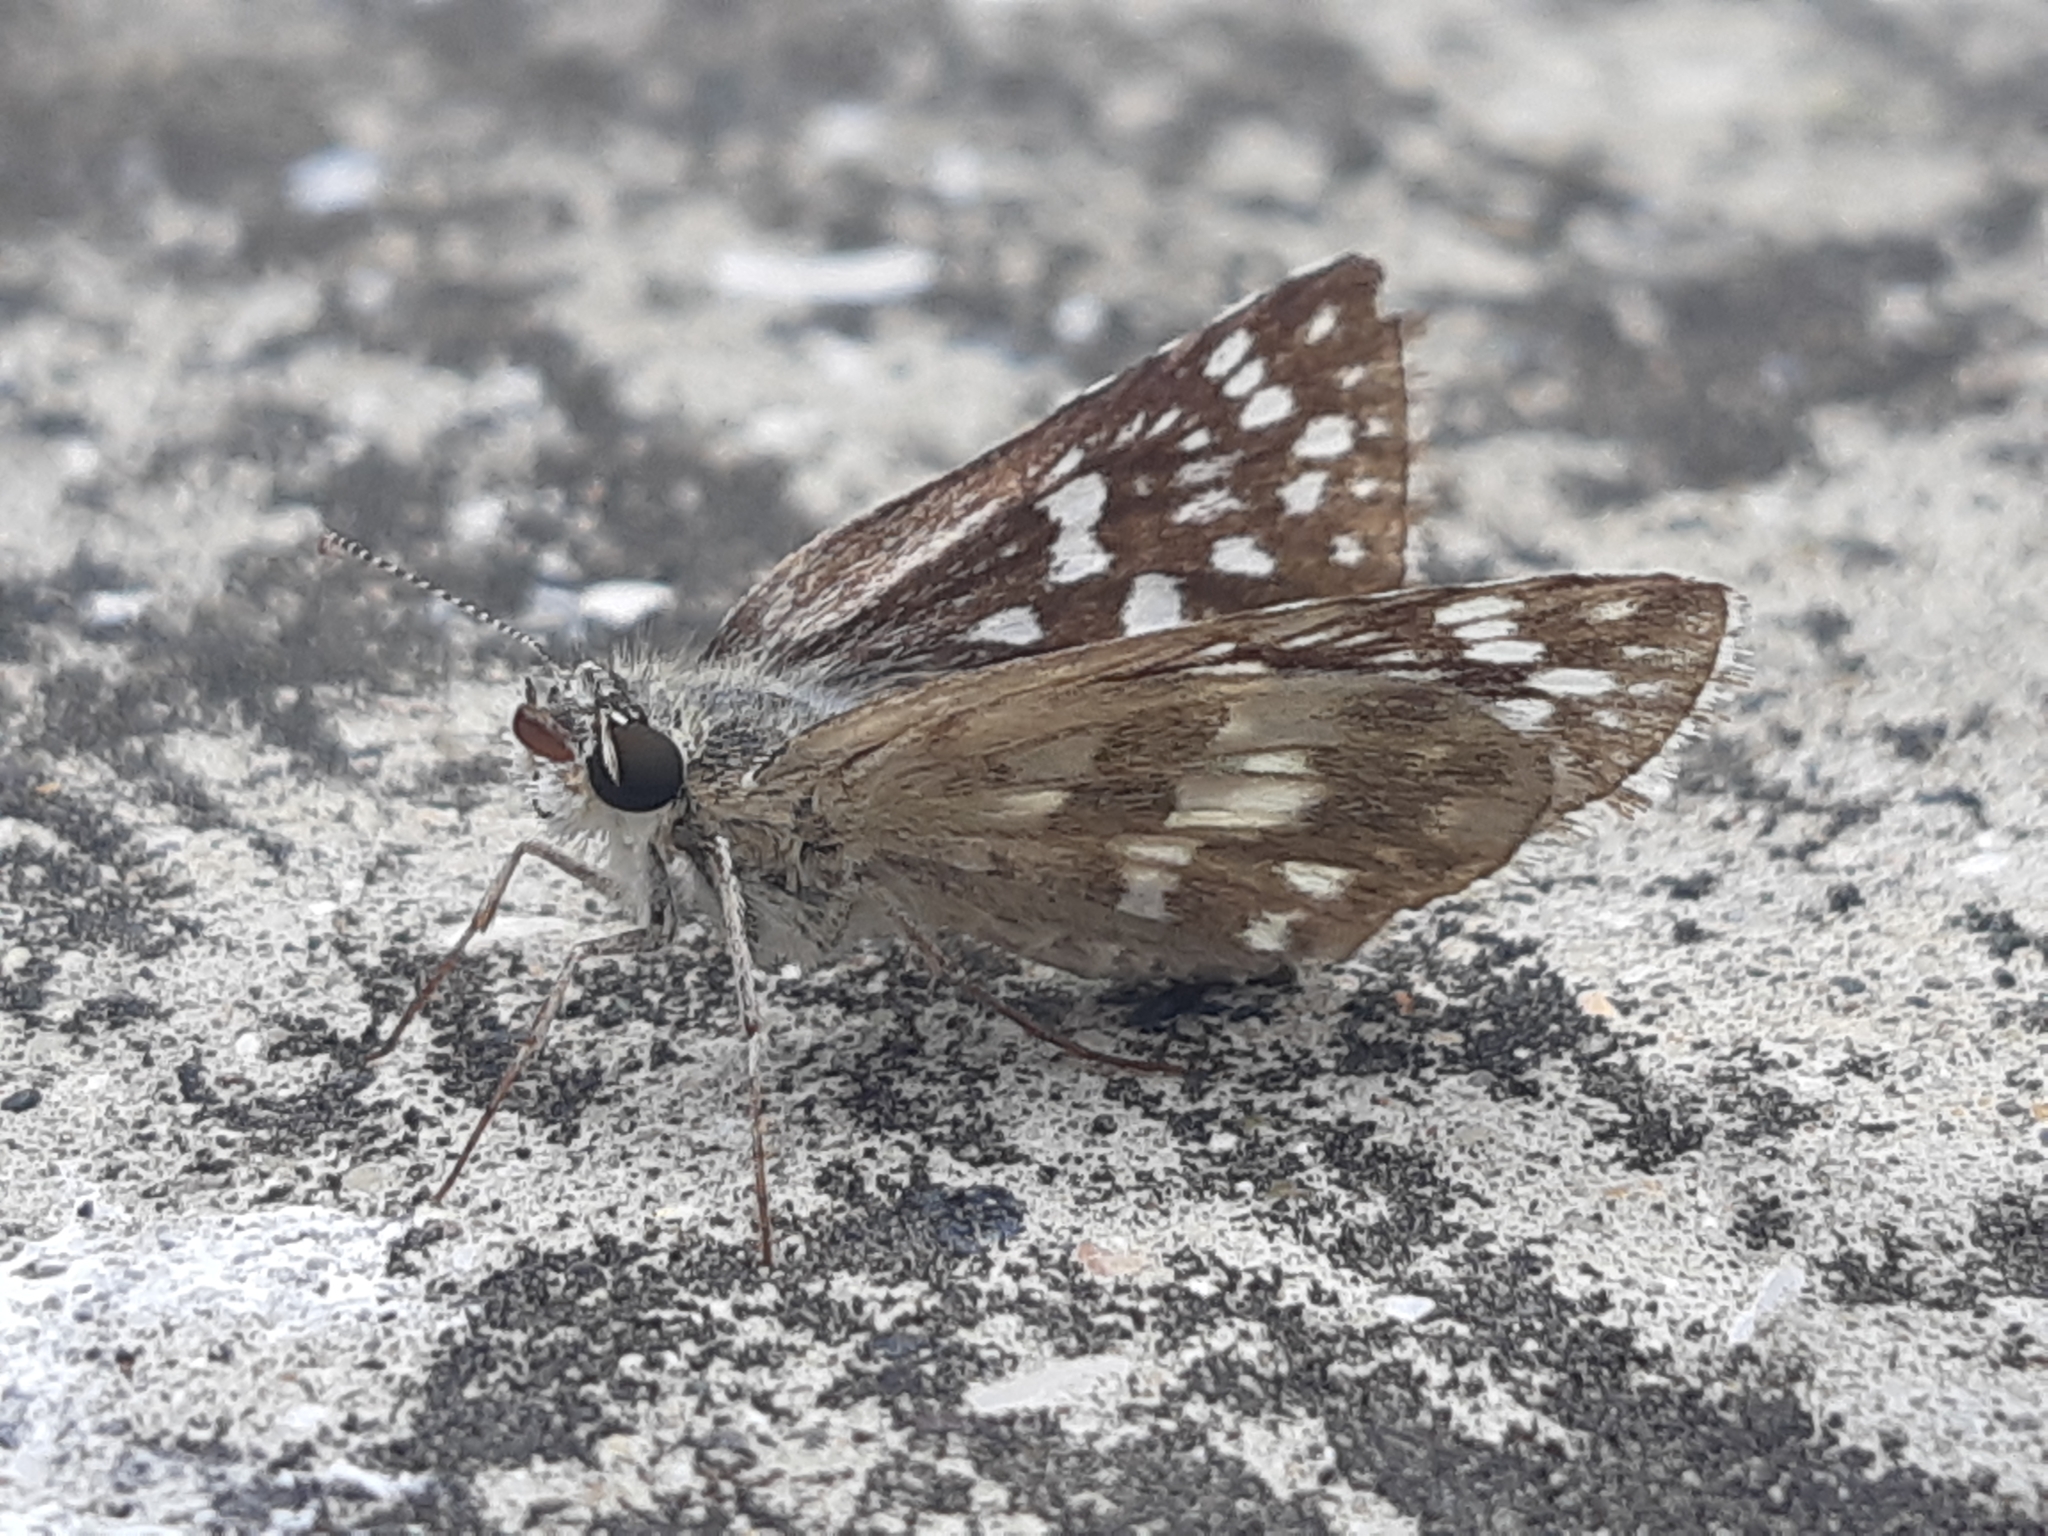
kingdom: Animalia
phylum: Arthropoda
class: Insecta
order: Lepidoptera
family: Hesperiidae
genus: Burnsius
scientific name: Burnsius chloe
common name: Chloe checkered-skipper
